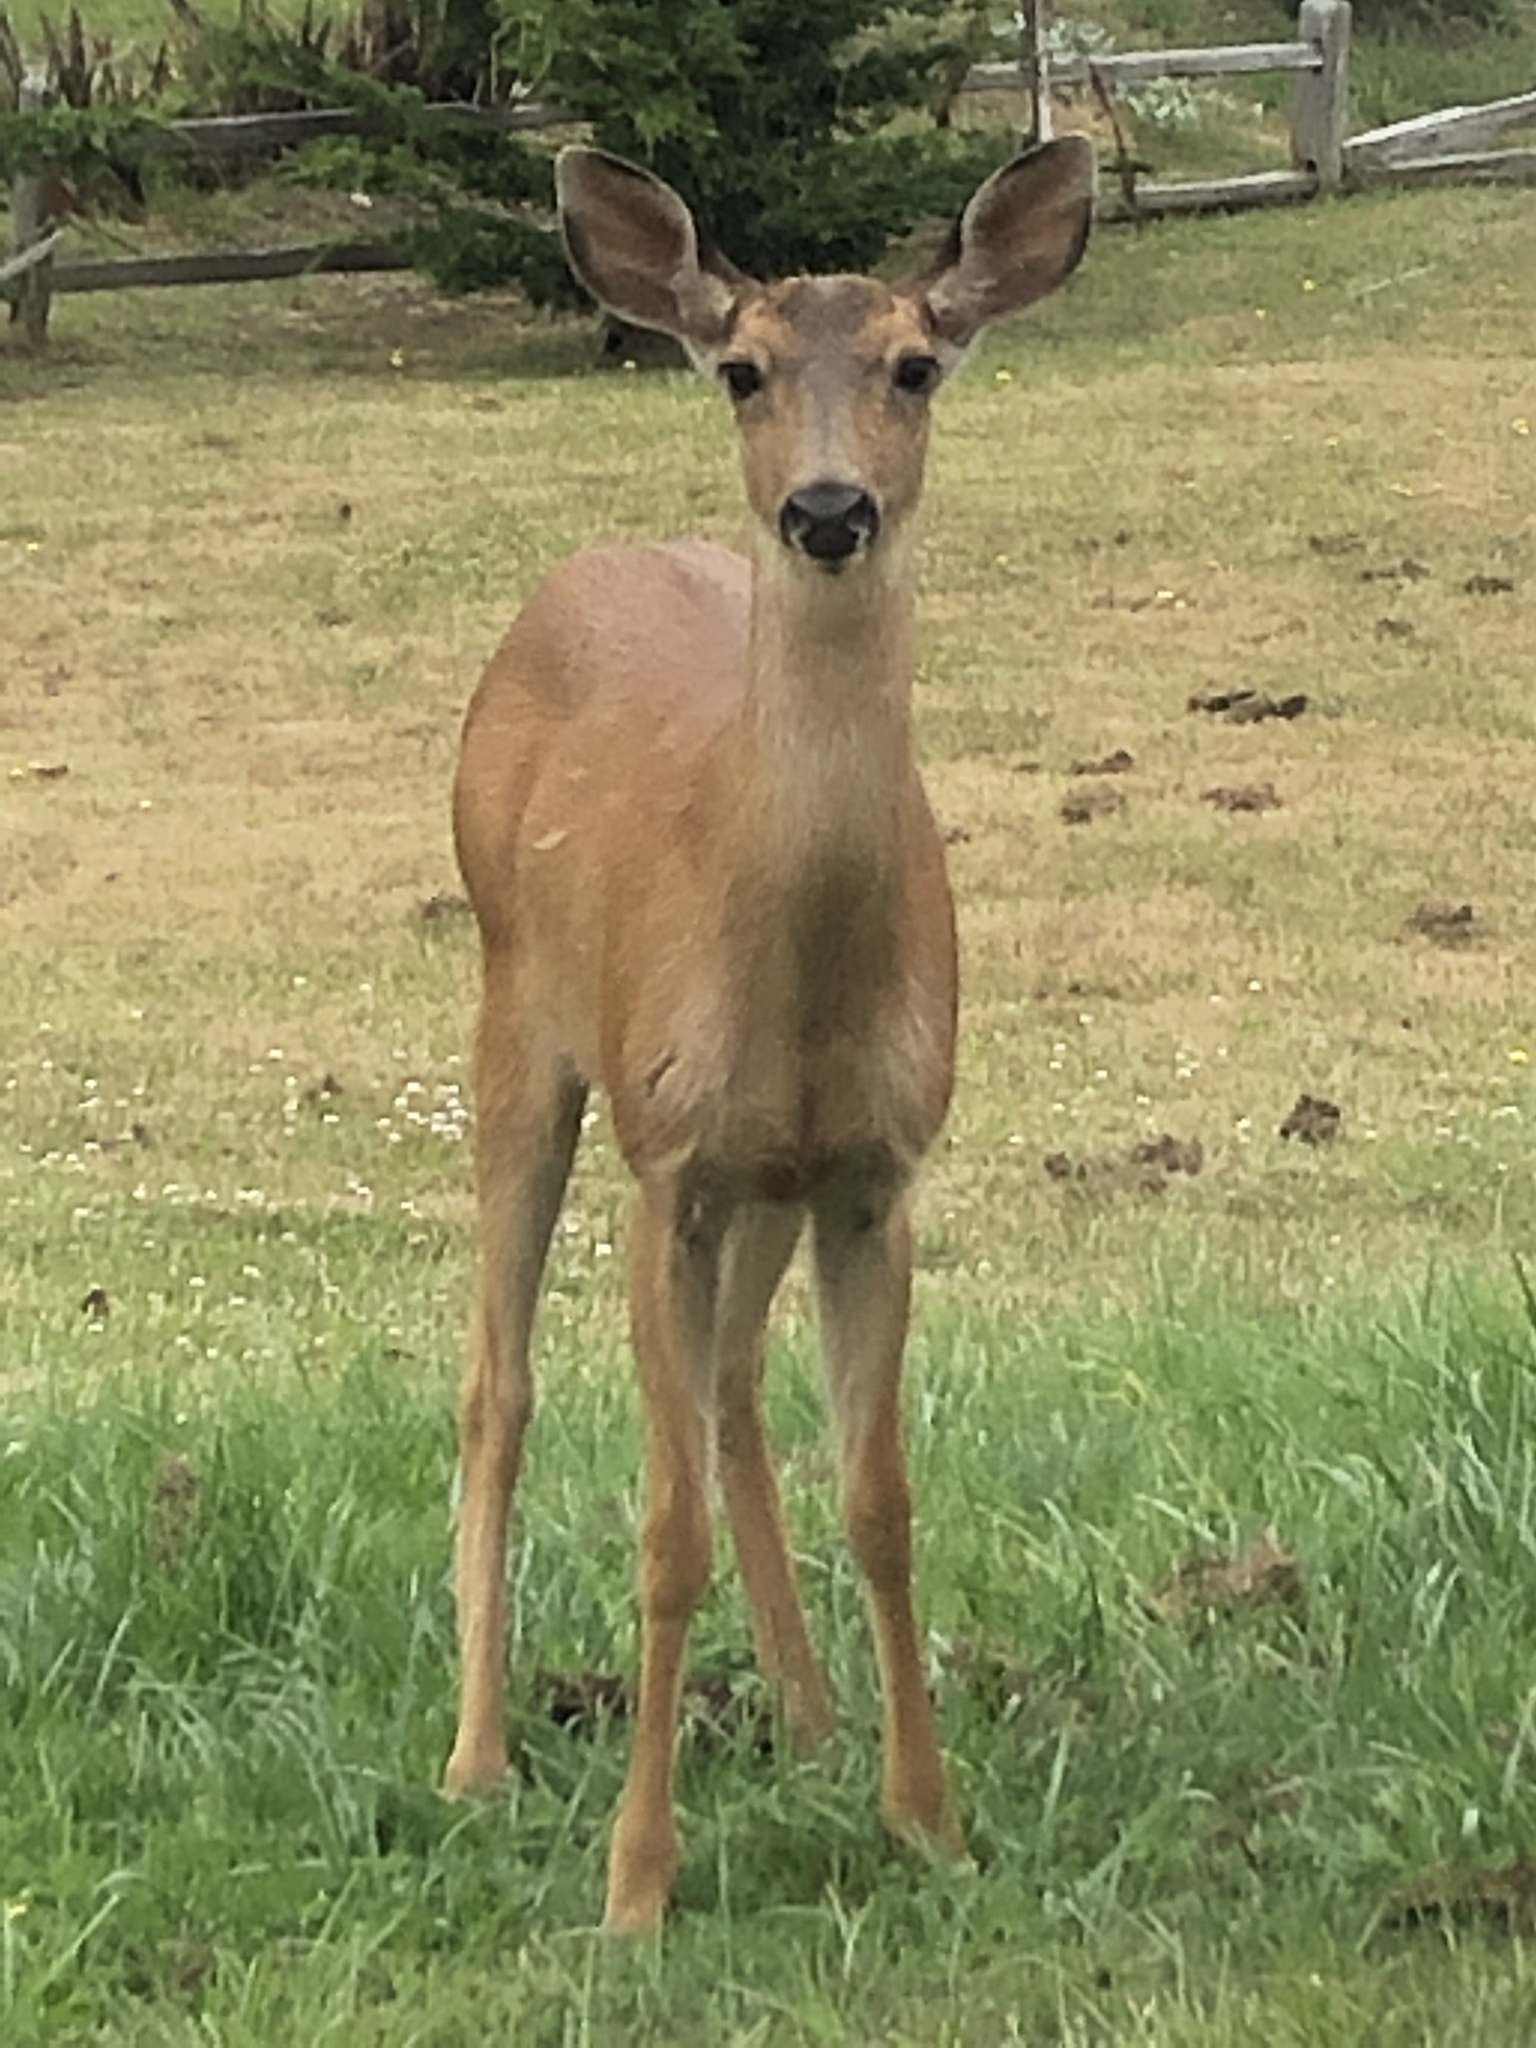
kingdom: Animalia
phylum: Chordata
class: Mammalia
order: Artiodactyla
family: Cervidae
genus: Odocoileus
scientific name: Odocoileus hemionus
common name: Mule deer
